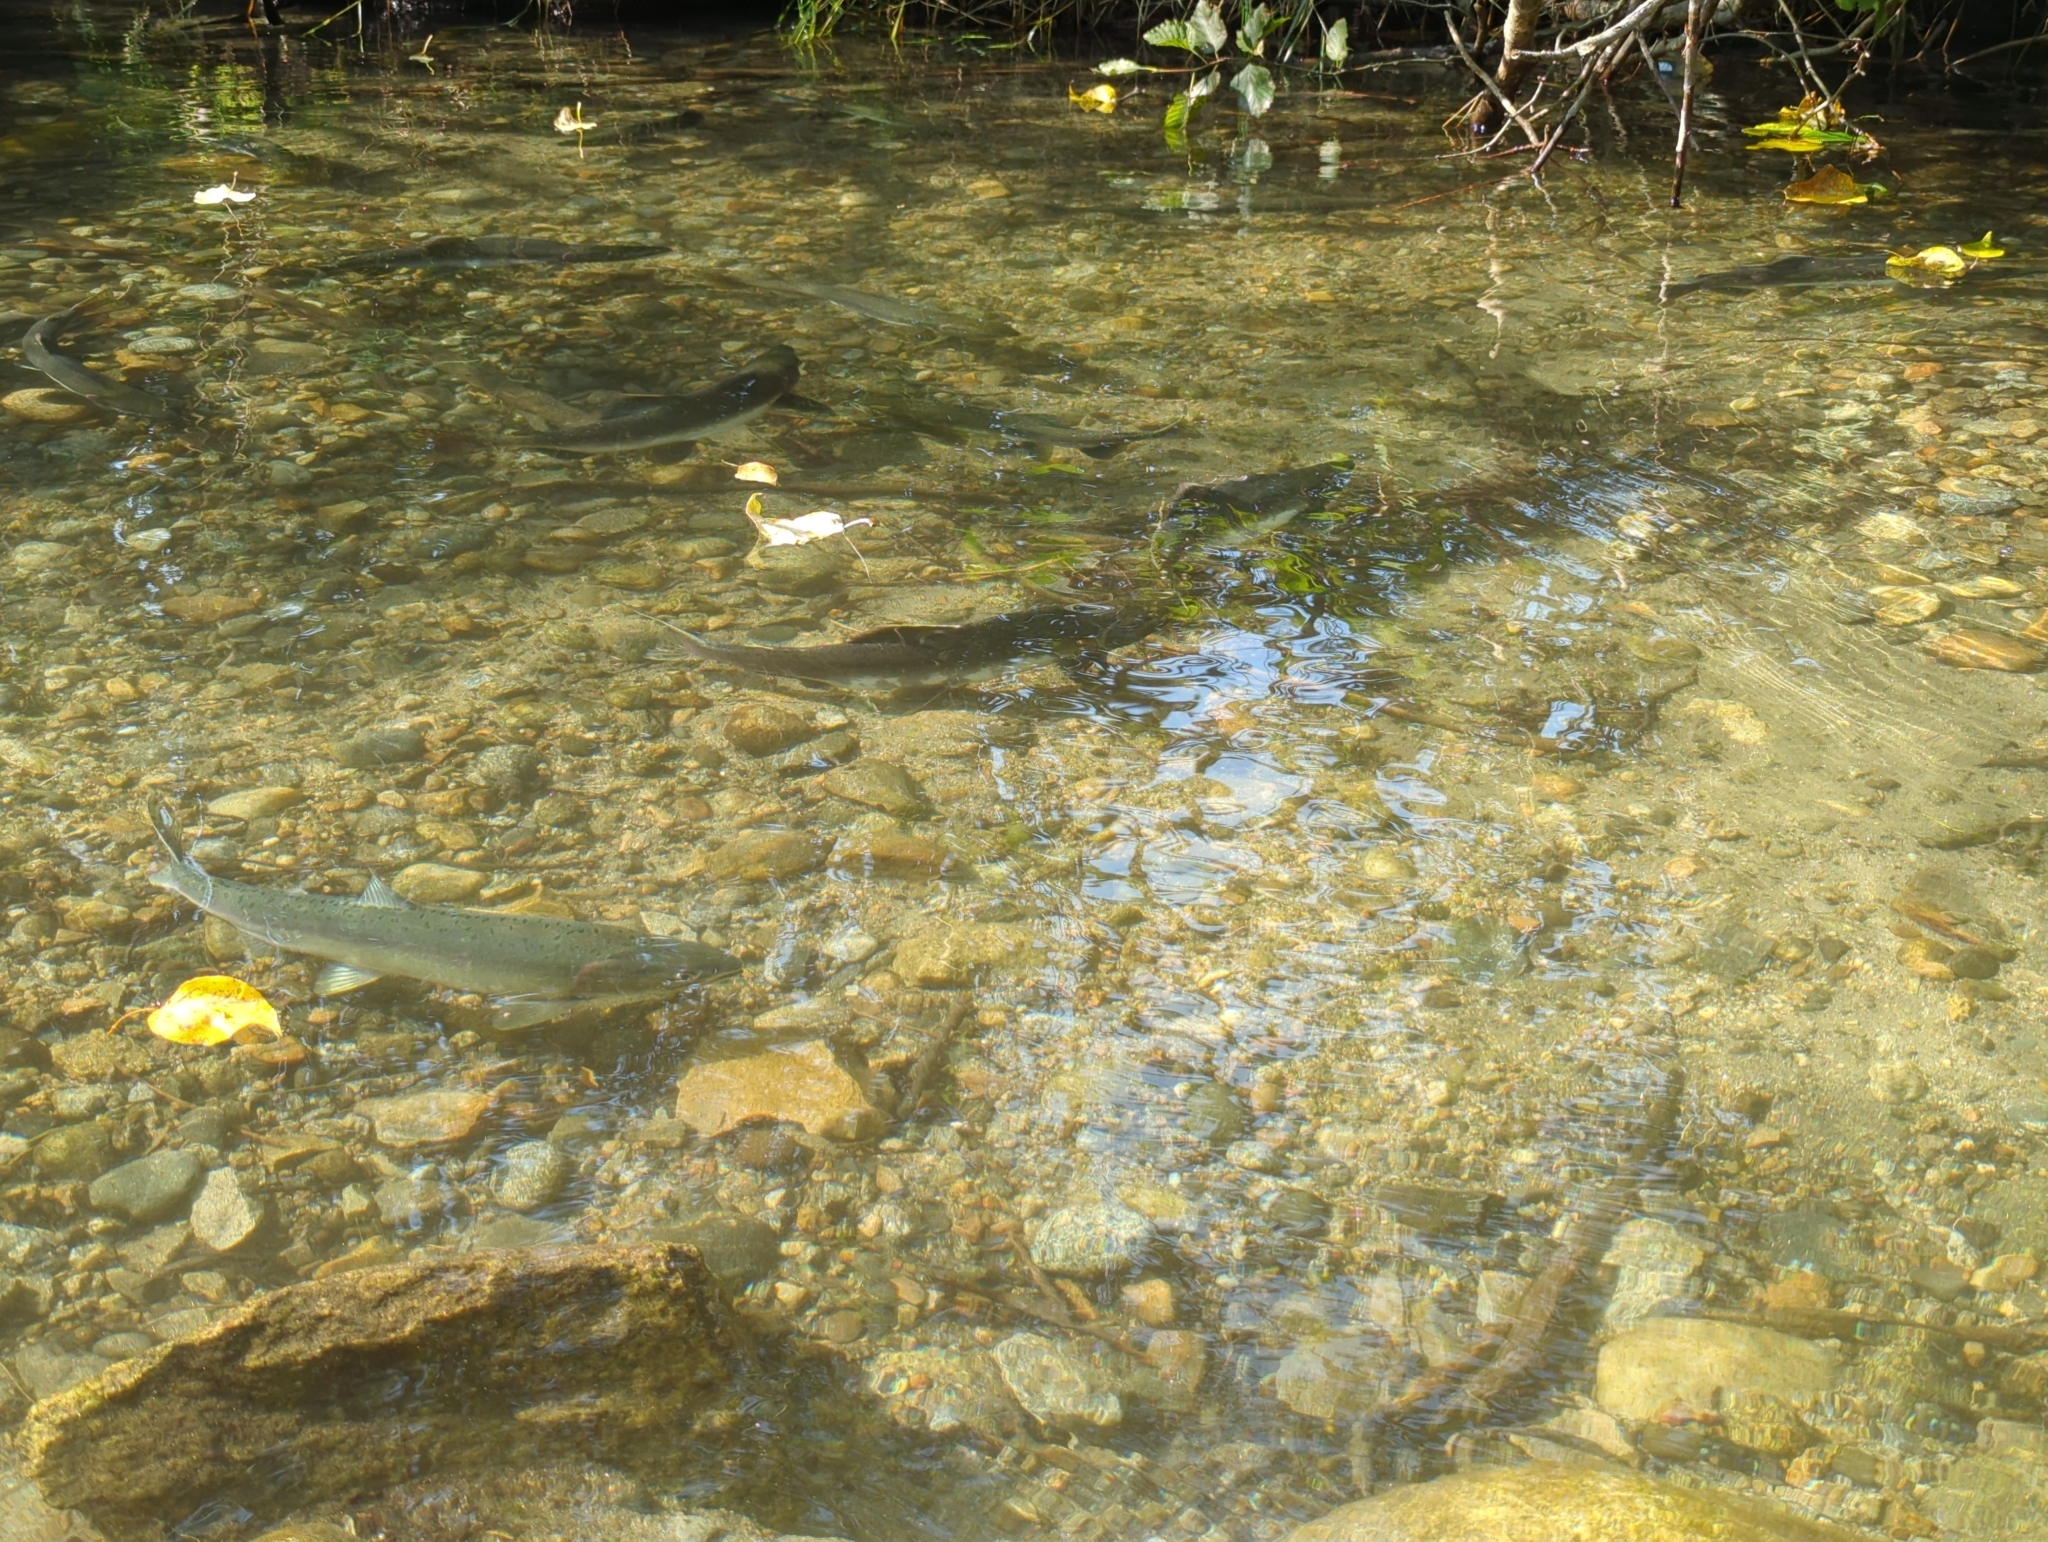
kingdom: Animalia
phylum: Chordata
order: Salmoniformes
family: Salmonidae
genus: Oncorhynchus
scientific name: Oncorhynchus gorbuscha
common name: Humpback salmon
